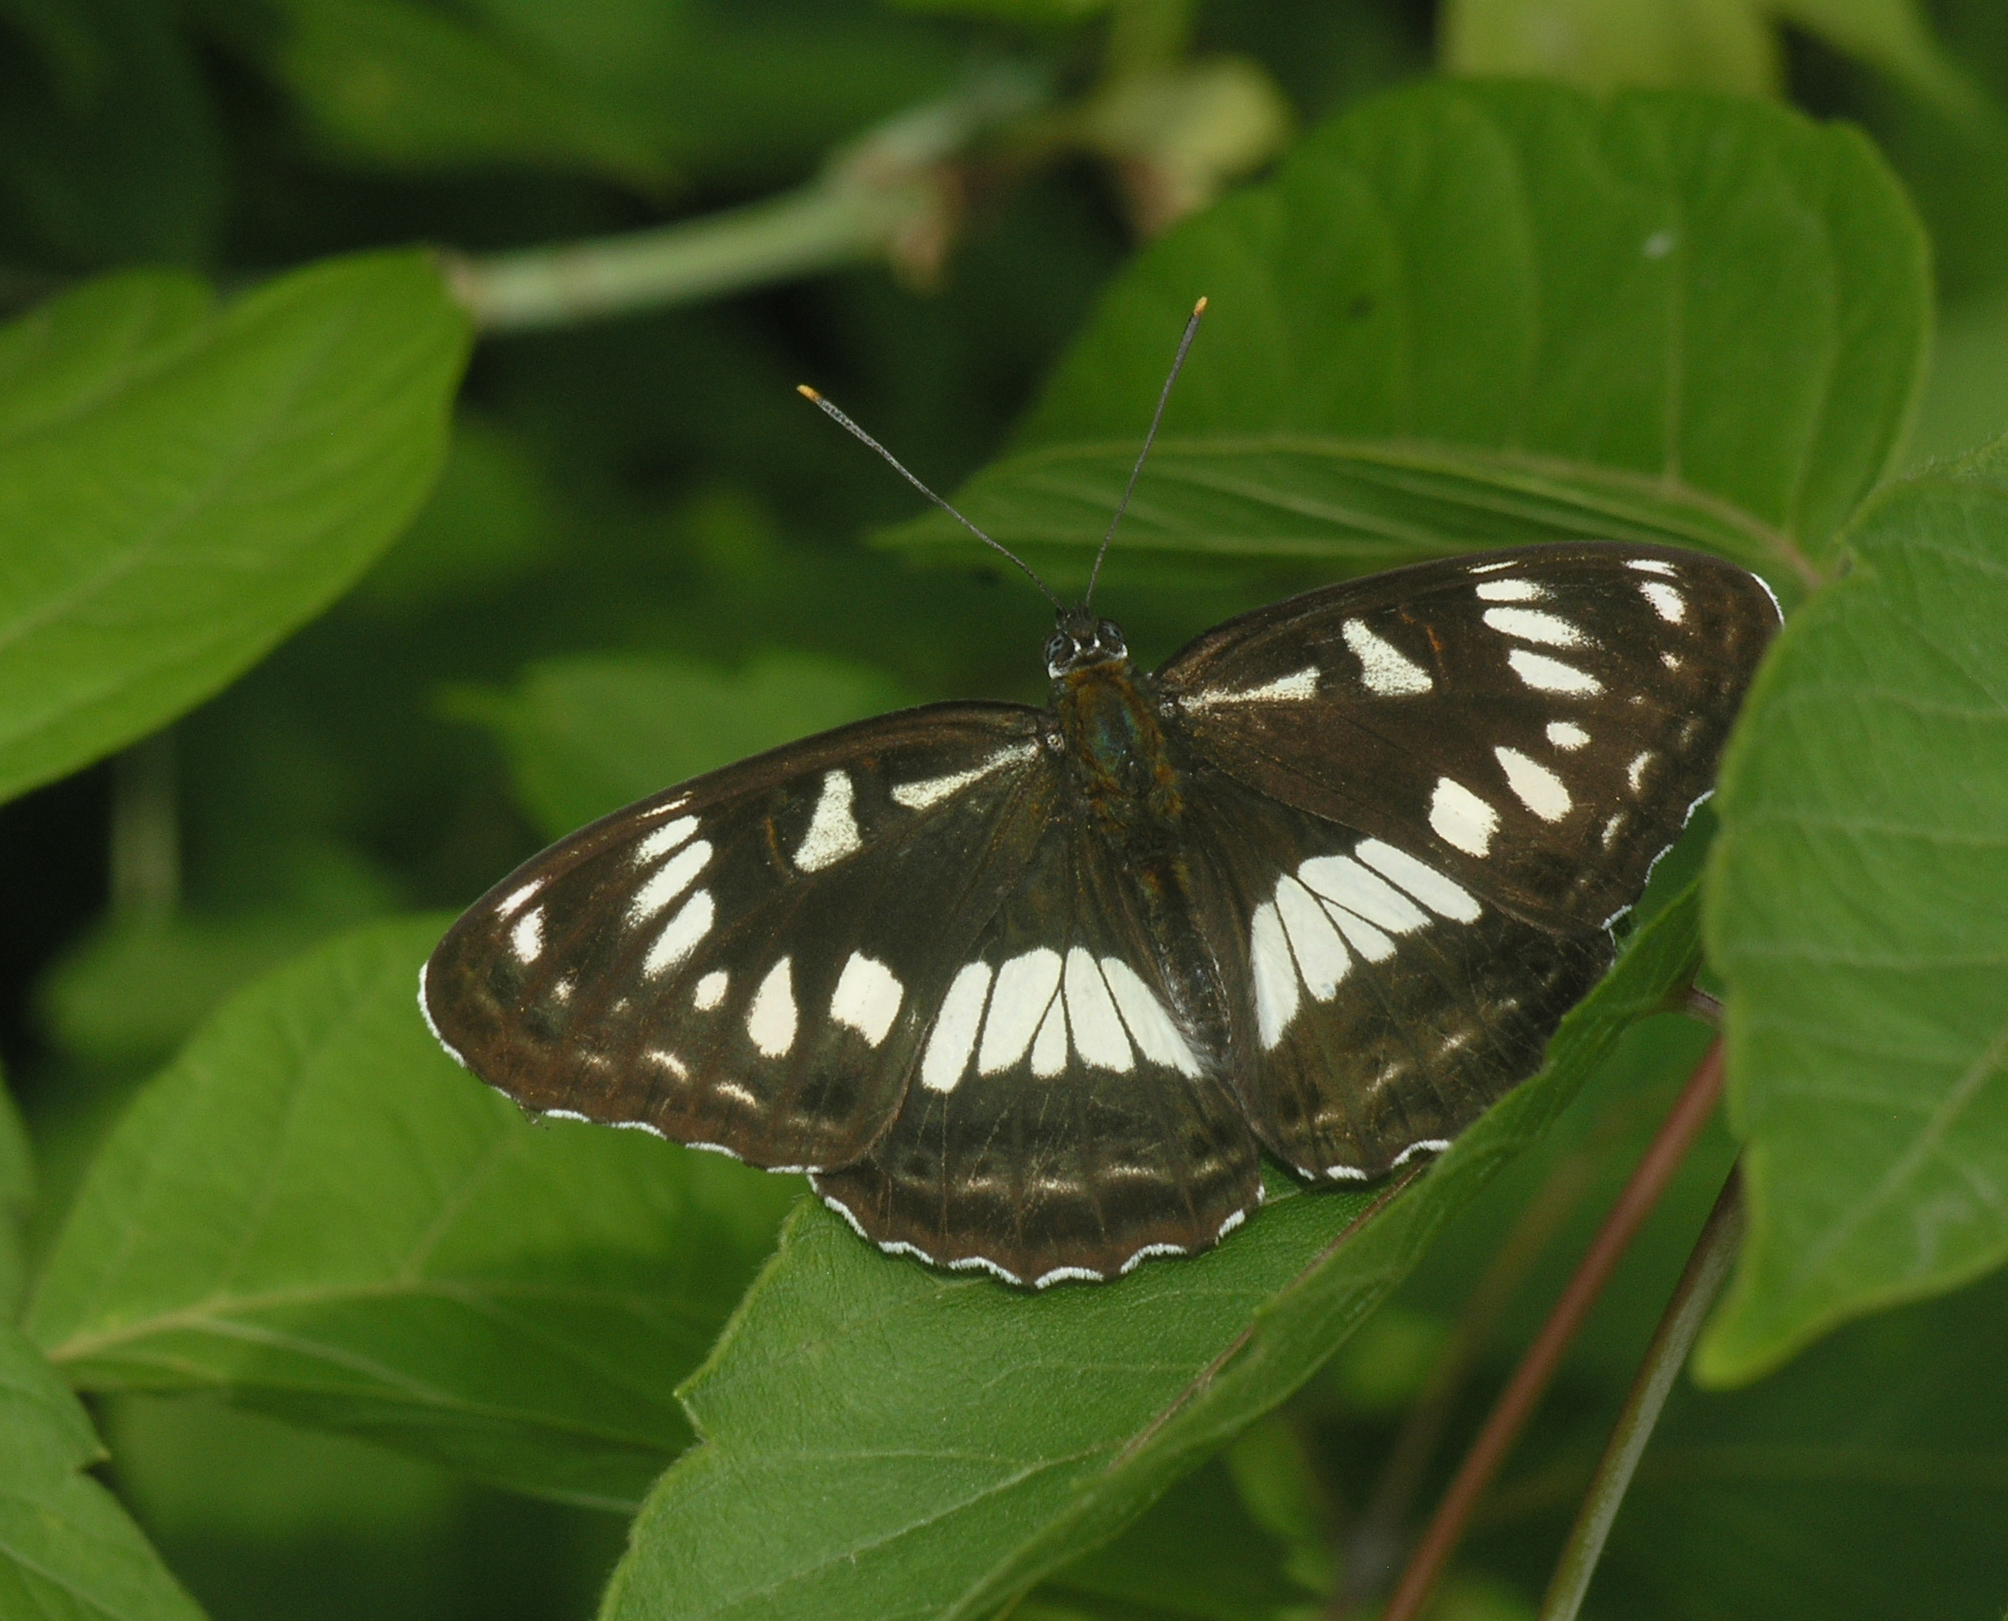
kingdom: Animalia
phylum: Arthropoda
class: Insecta
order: Lepidoptera
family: Nymphalidae
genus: Limenitis
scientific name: Limenitis doerriesi
